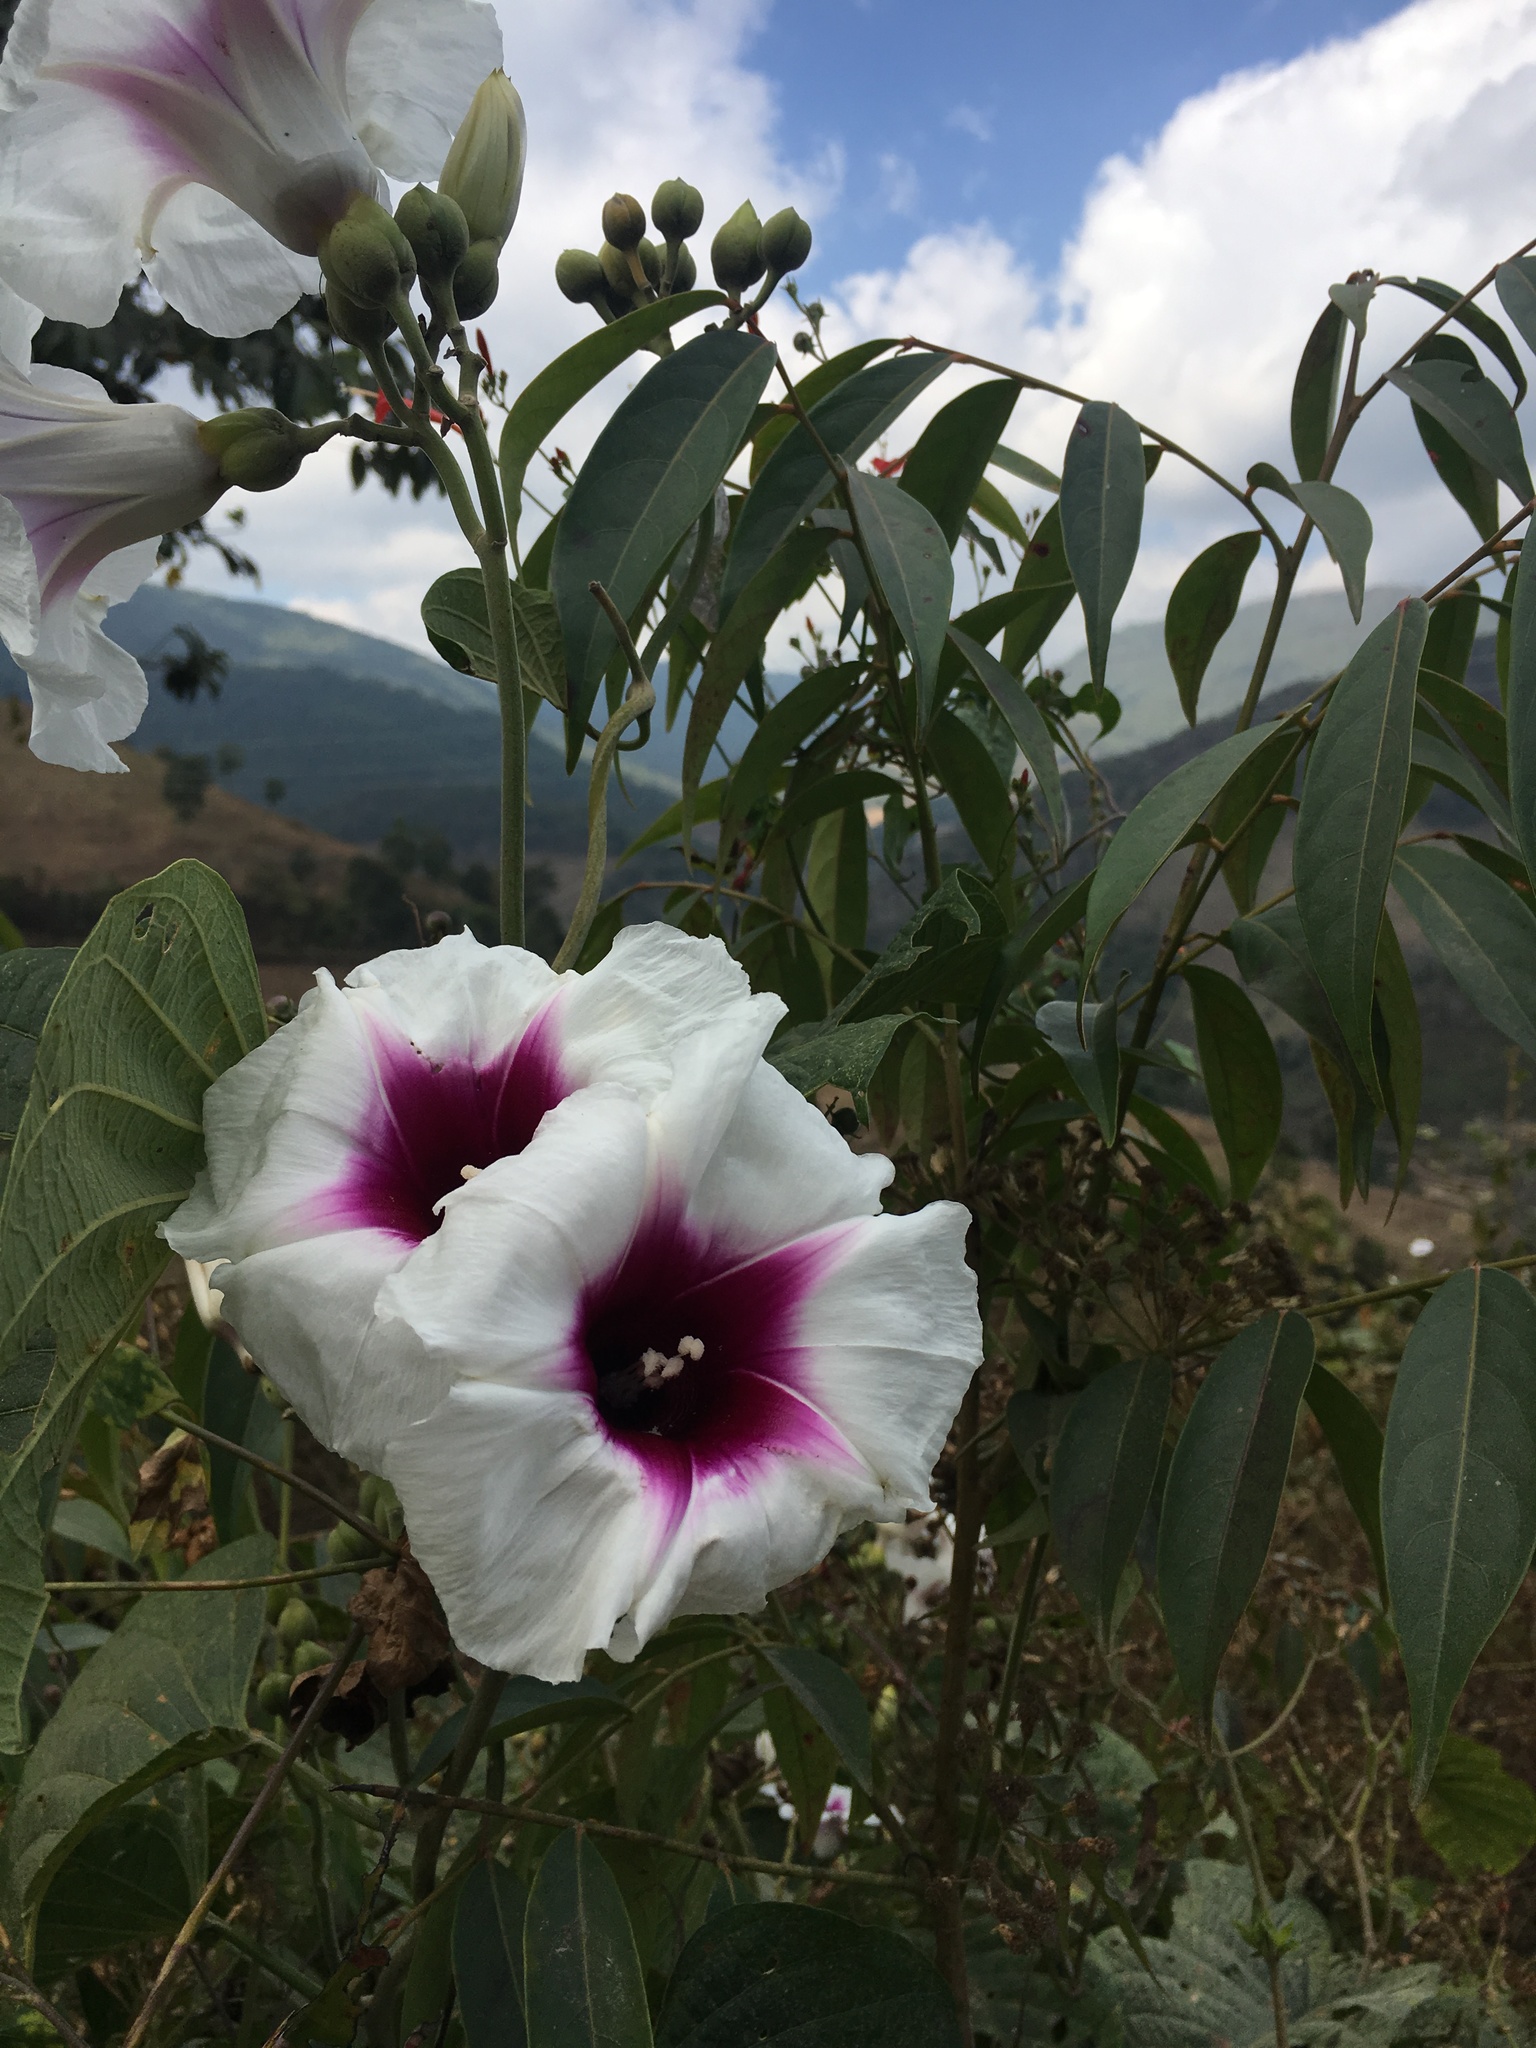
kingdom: Plantae
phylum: Tracheophyta
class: Magnoliopsida
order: Solanales
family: Convolvulaceae
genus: Ipomoea
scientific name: Ipomoea campanulata
